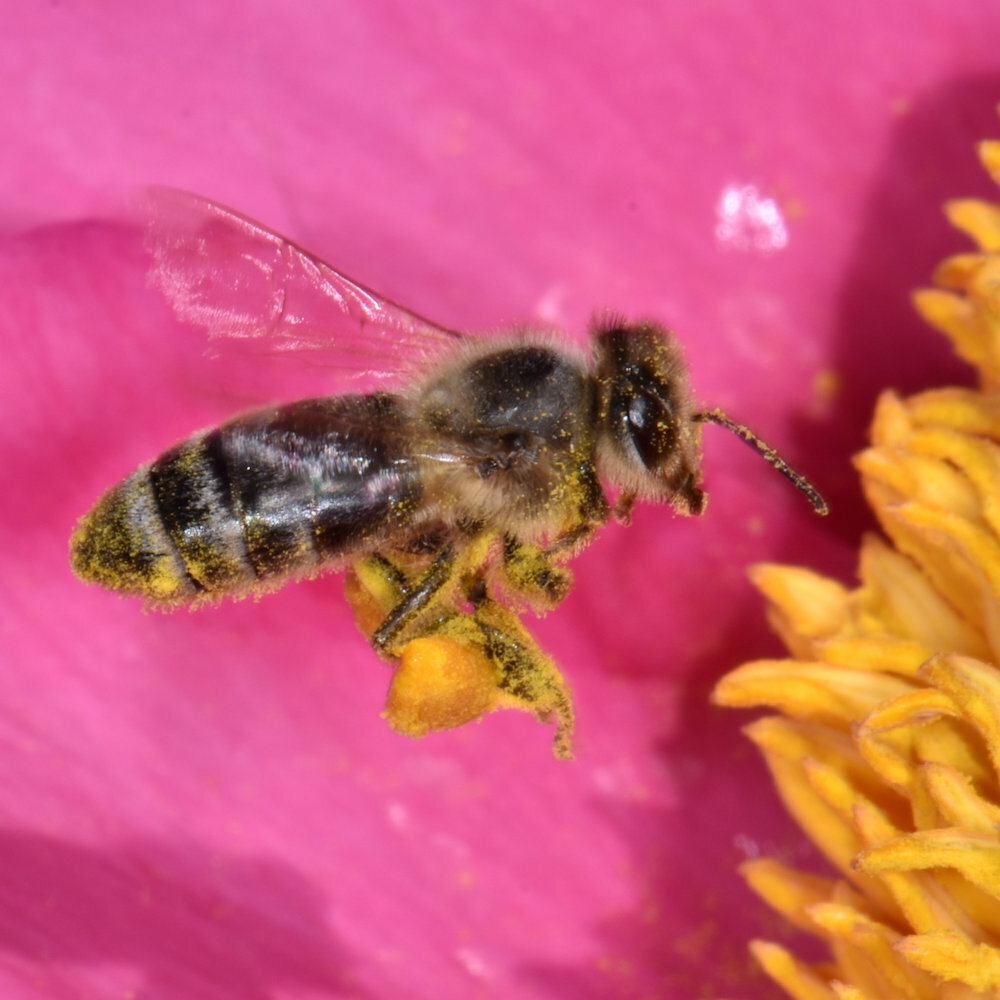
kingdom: Animalia
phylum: Arthropoda
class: Insecta
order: Hymenoptera
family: Apidae
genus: Apis
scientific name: Apis mellifera
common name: Honey bee
